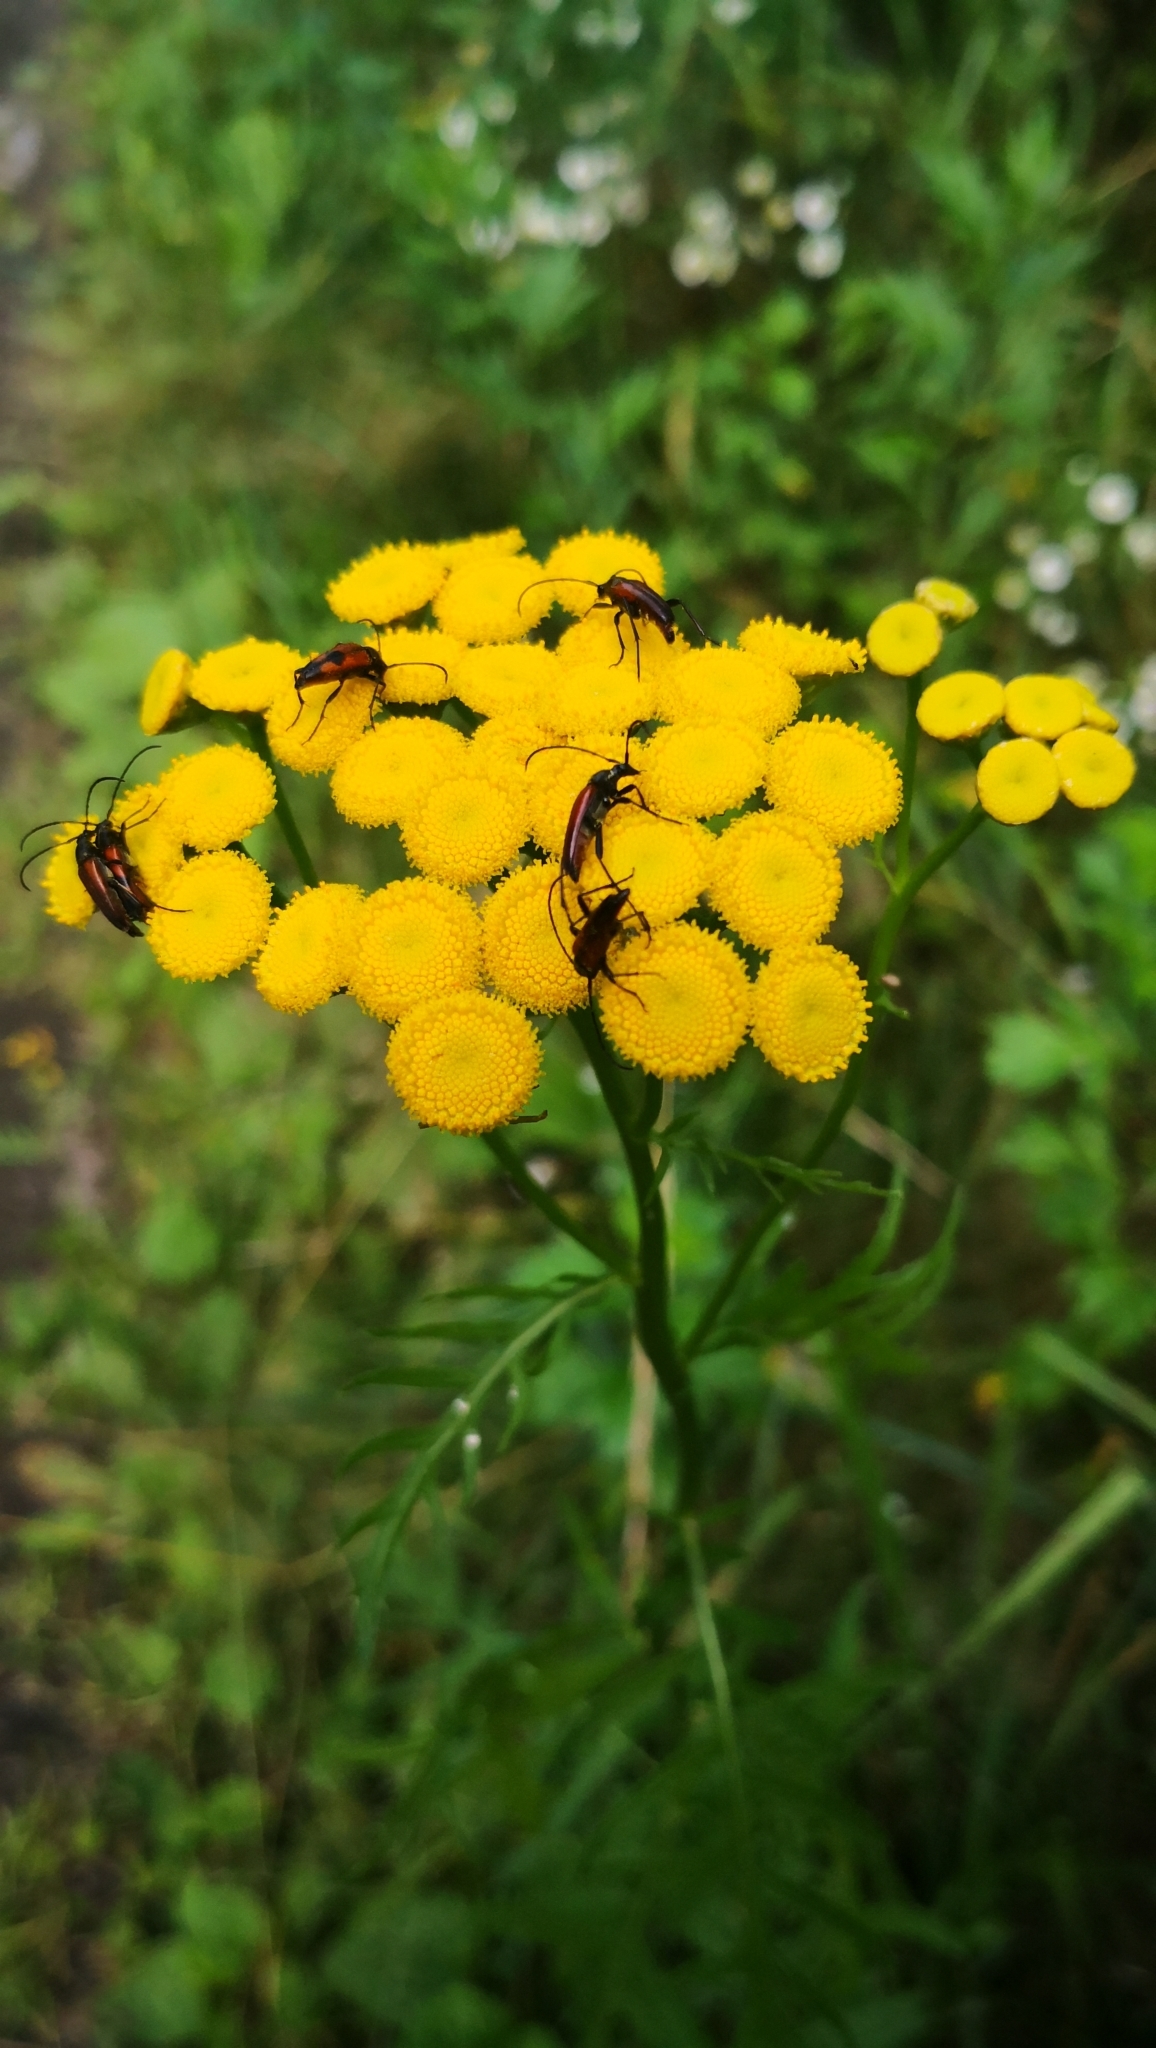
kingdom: Plantae
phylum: Tracheophyta
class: Magnoliopsida
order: Asterales
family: Asteraceae
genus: Tanacetum
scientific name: Tanacetum vulgare
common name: Common tansy
